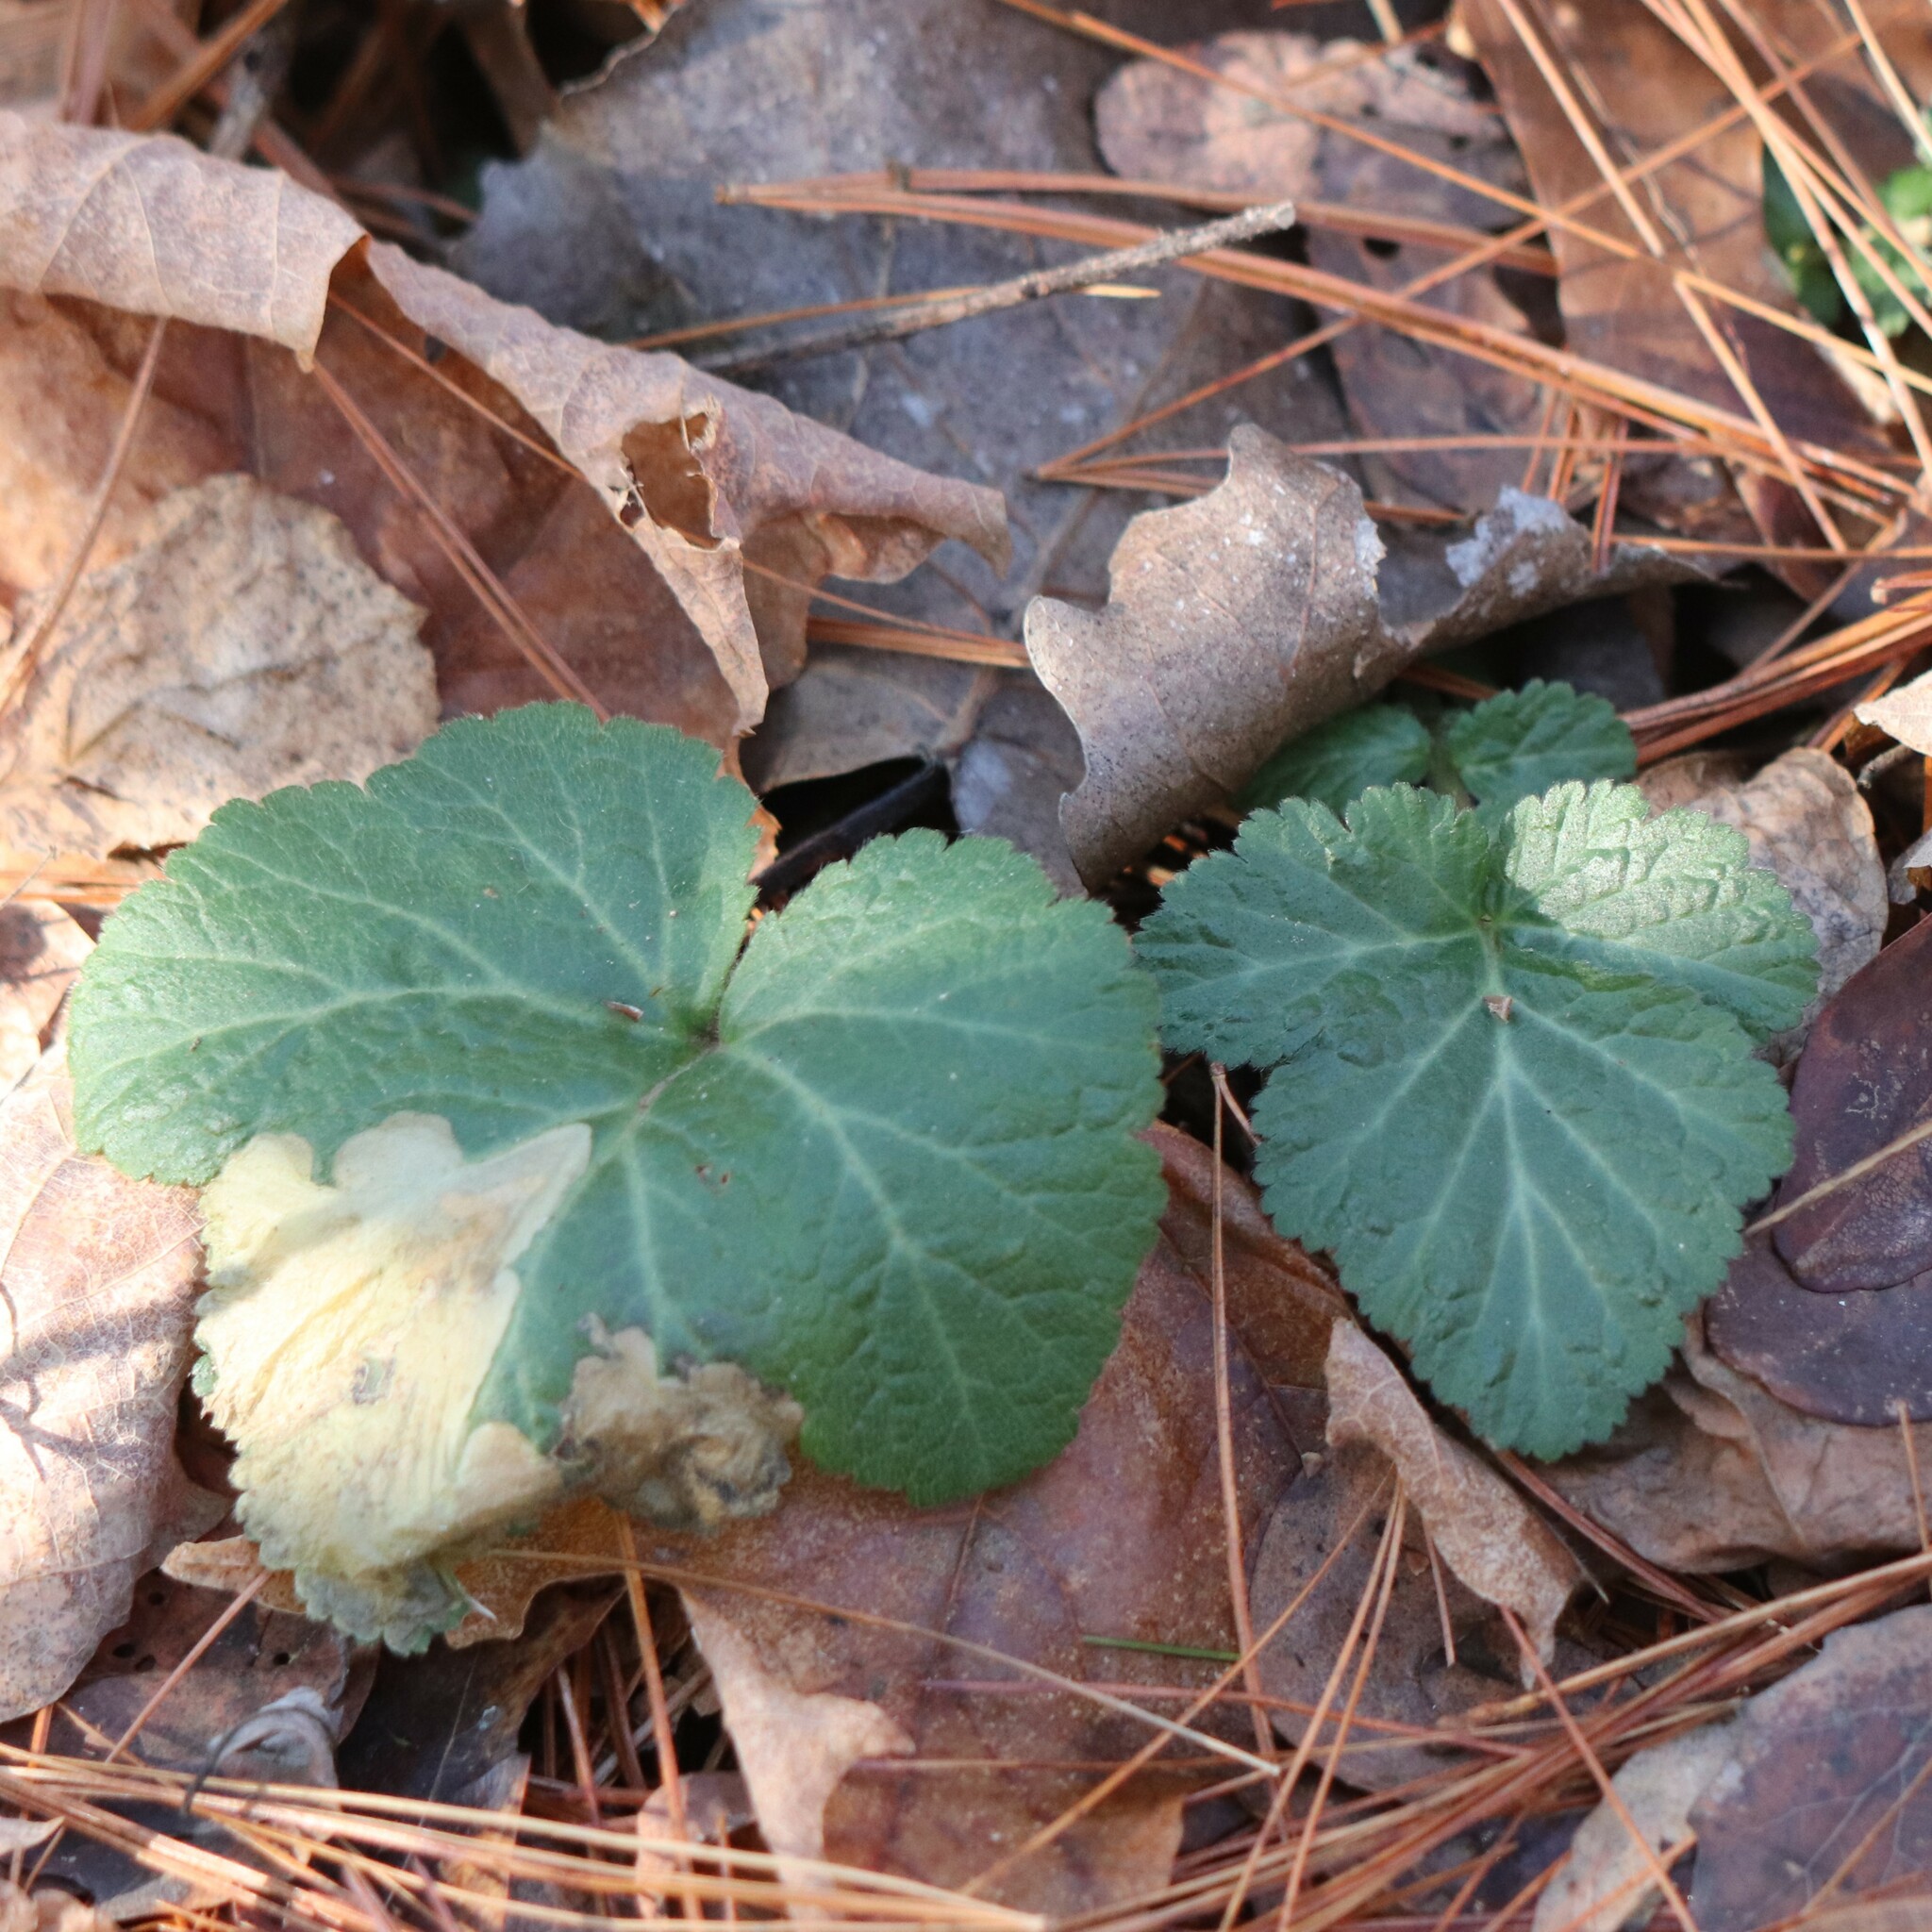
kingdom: Plantae
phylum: Tracheophyta
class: Magnoliopsida
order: Rosales
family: Rosaceae
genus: Geum
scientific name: Geum canadense
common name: White avens
